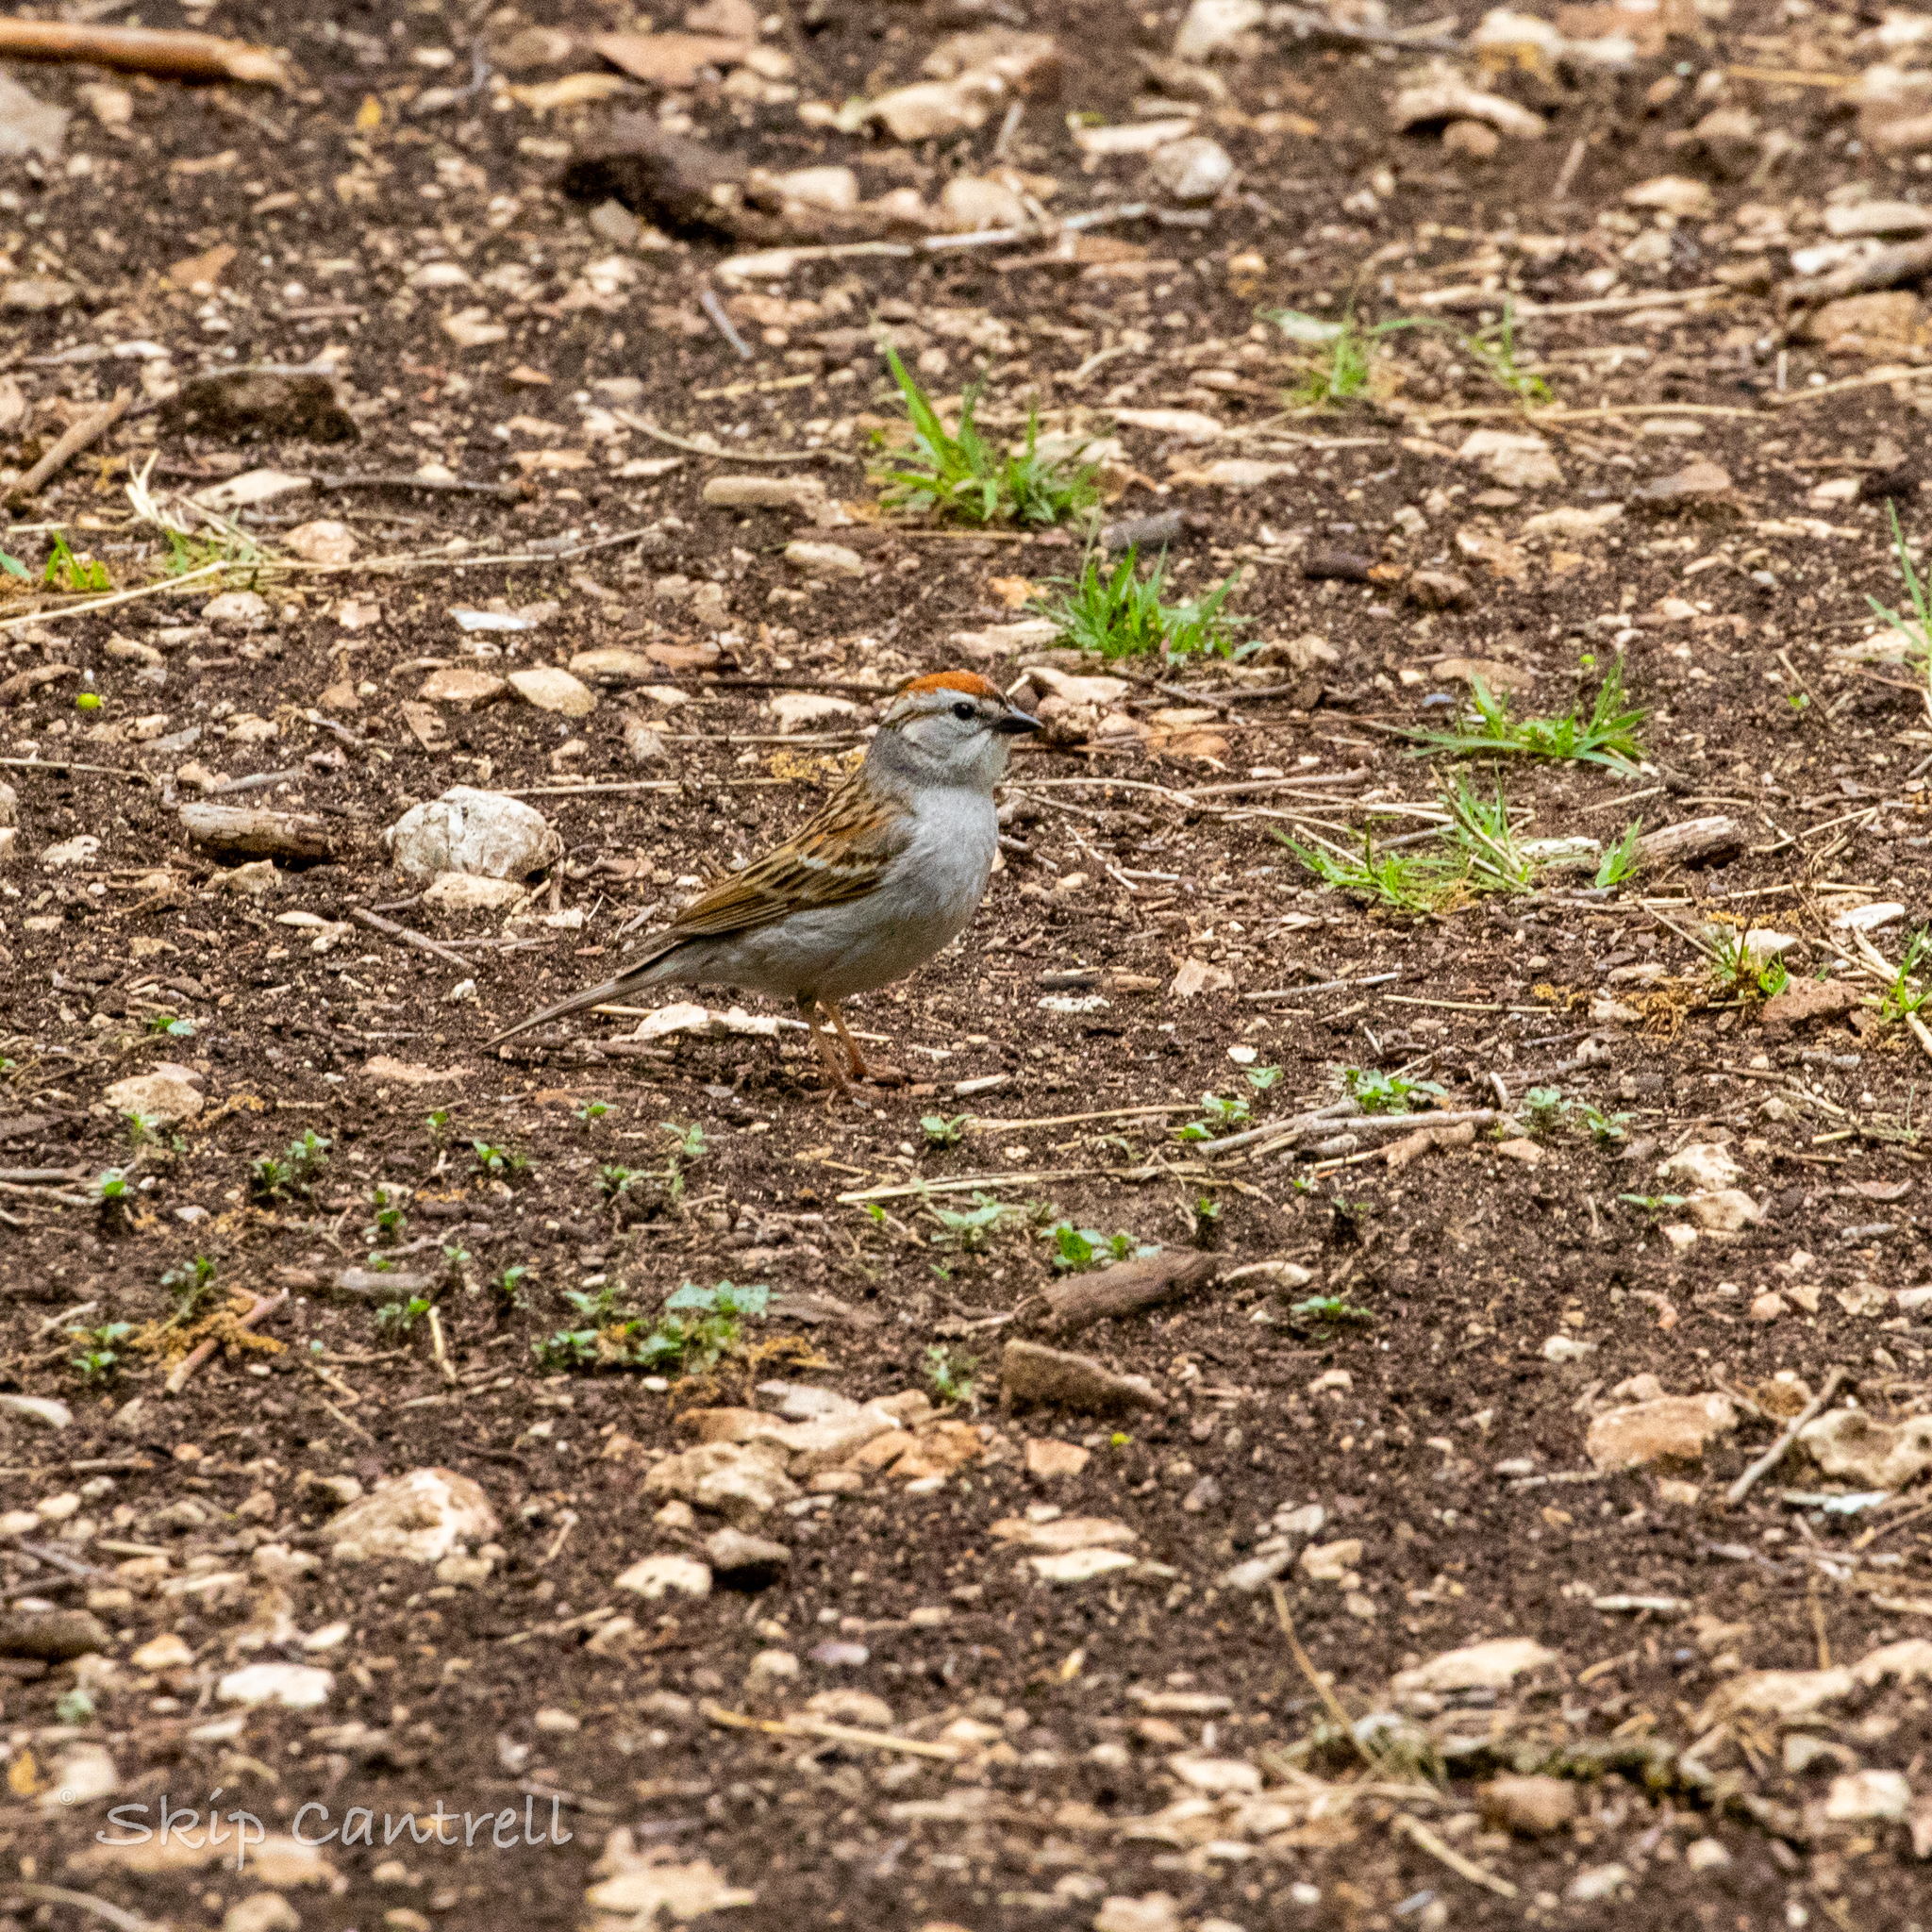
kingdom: Animalia
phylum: Chordata
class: Aves
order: Passeriformes
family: Passerellidae
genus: Spizella
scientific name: Spizella passerina
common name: Chipping sparrow
